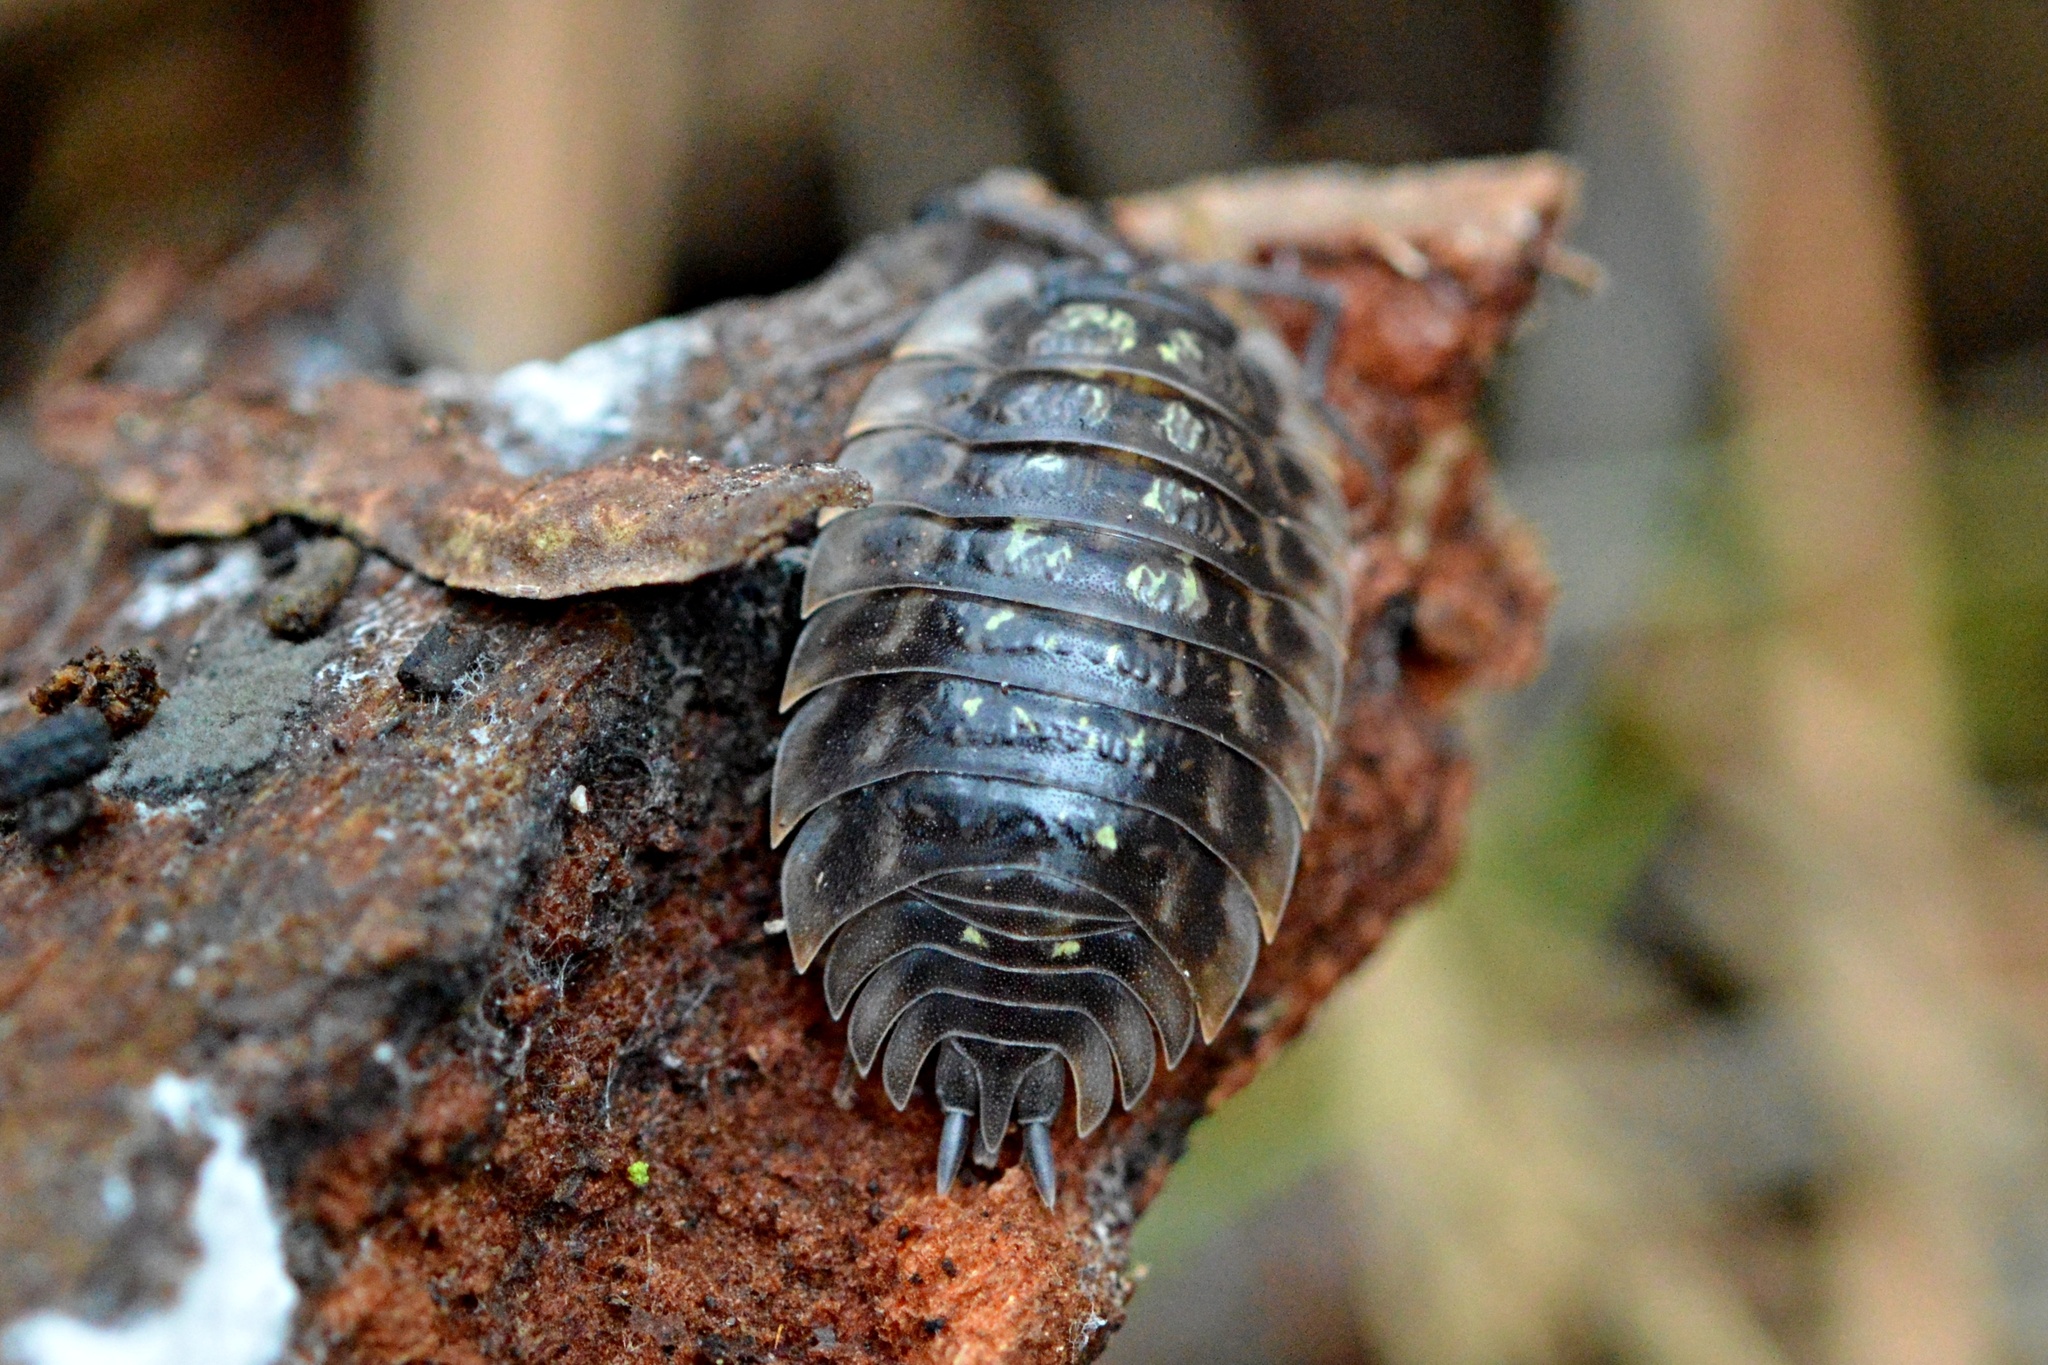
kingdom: Animalia
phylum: Arthropoda
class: Malacostraca
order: Isopoda
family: Oniscidae
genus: Oniscus
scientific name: Oniscus asellus
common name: Common shiny woodlouse
